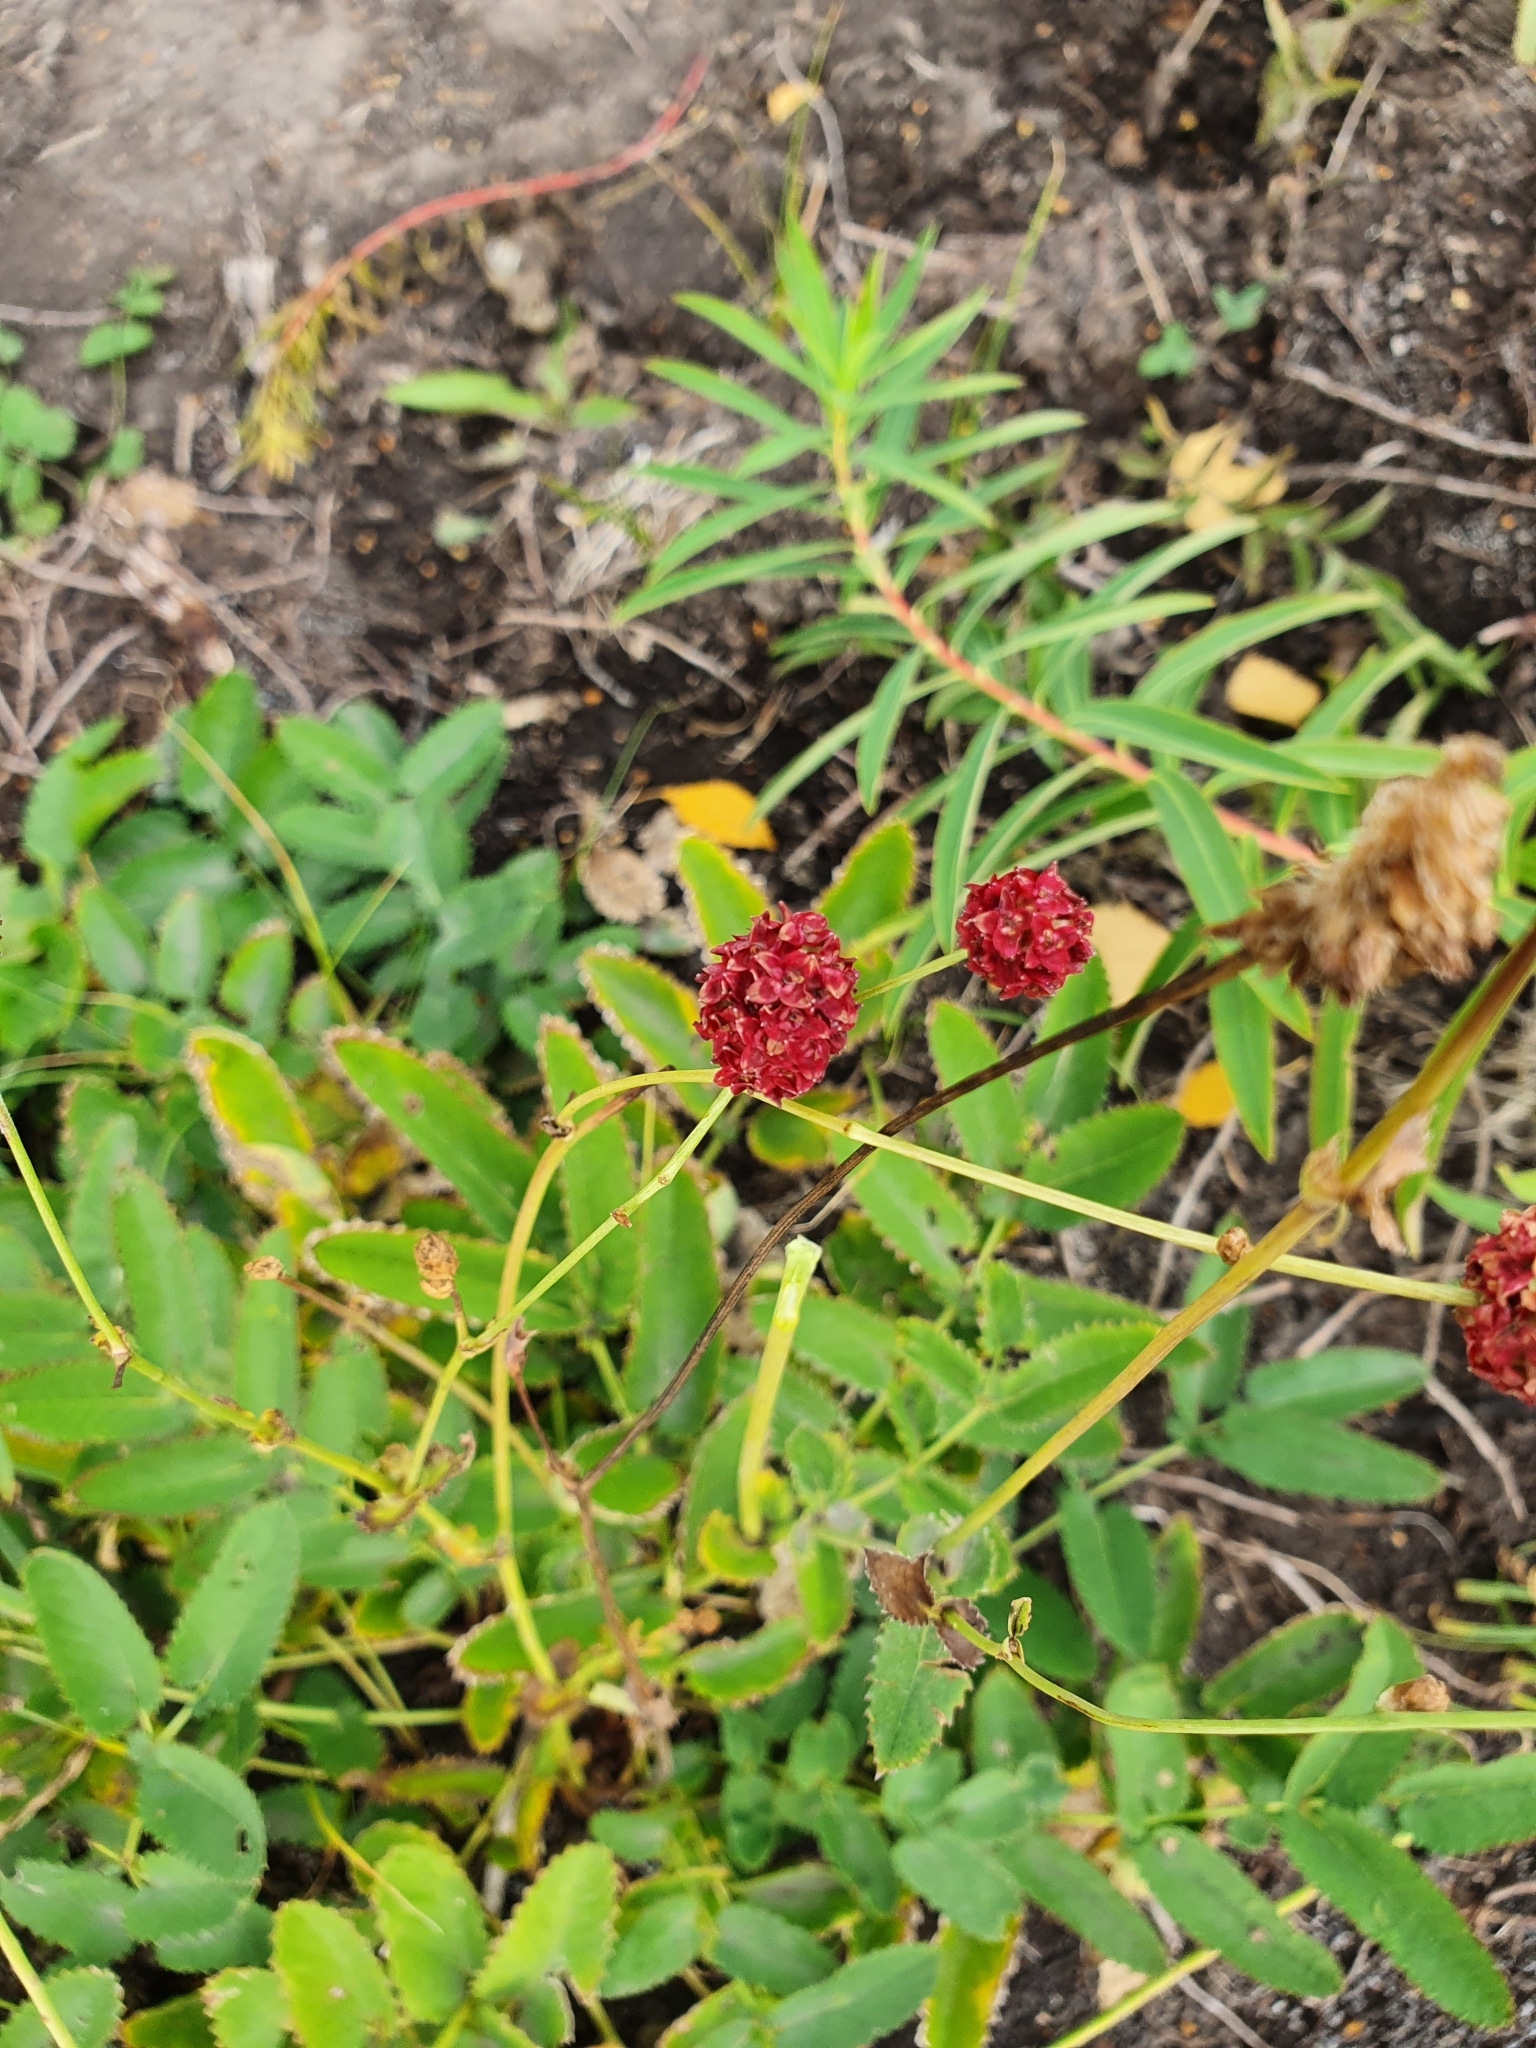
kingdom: Plantae
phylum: Tracheophyta
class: Magnoliopsida
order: Rosales
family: Rosaceae
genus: Sanguisorba
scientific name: Sanguisorba officinalis
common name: Great burnet
